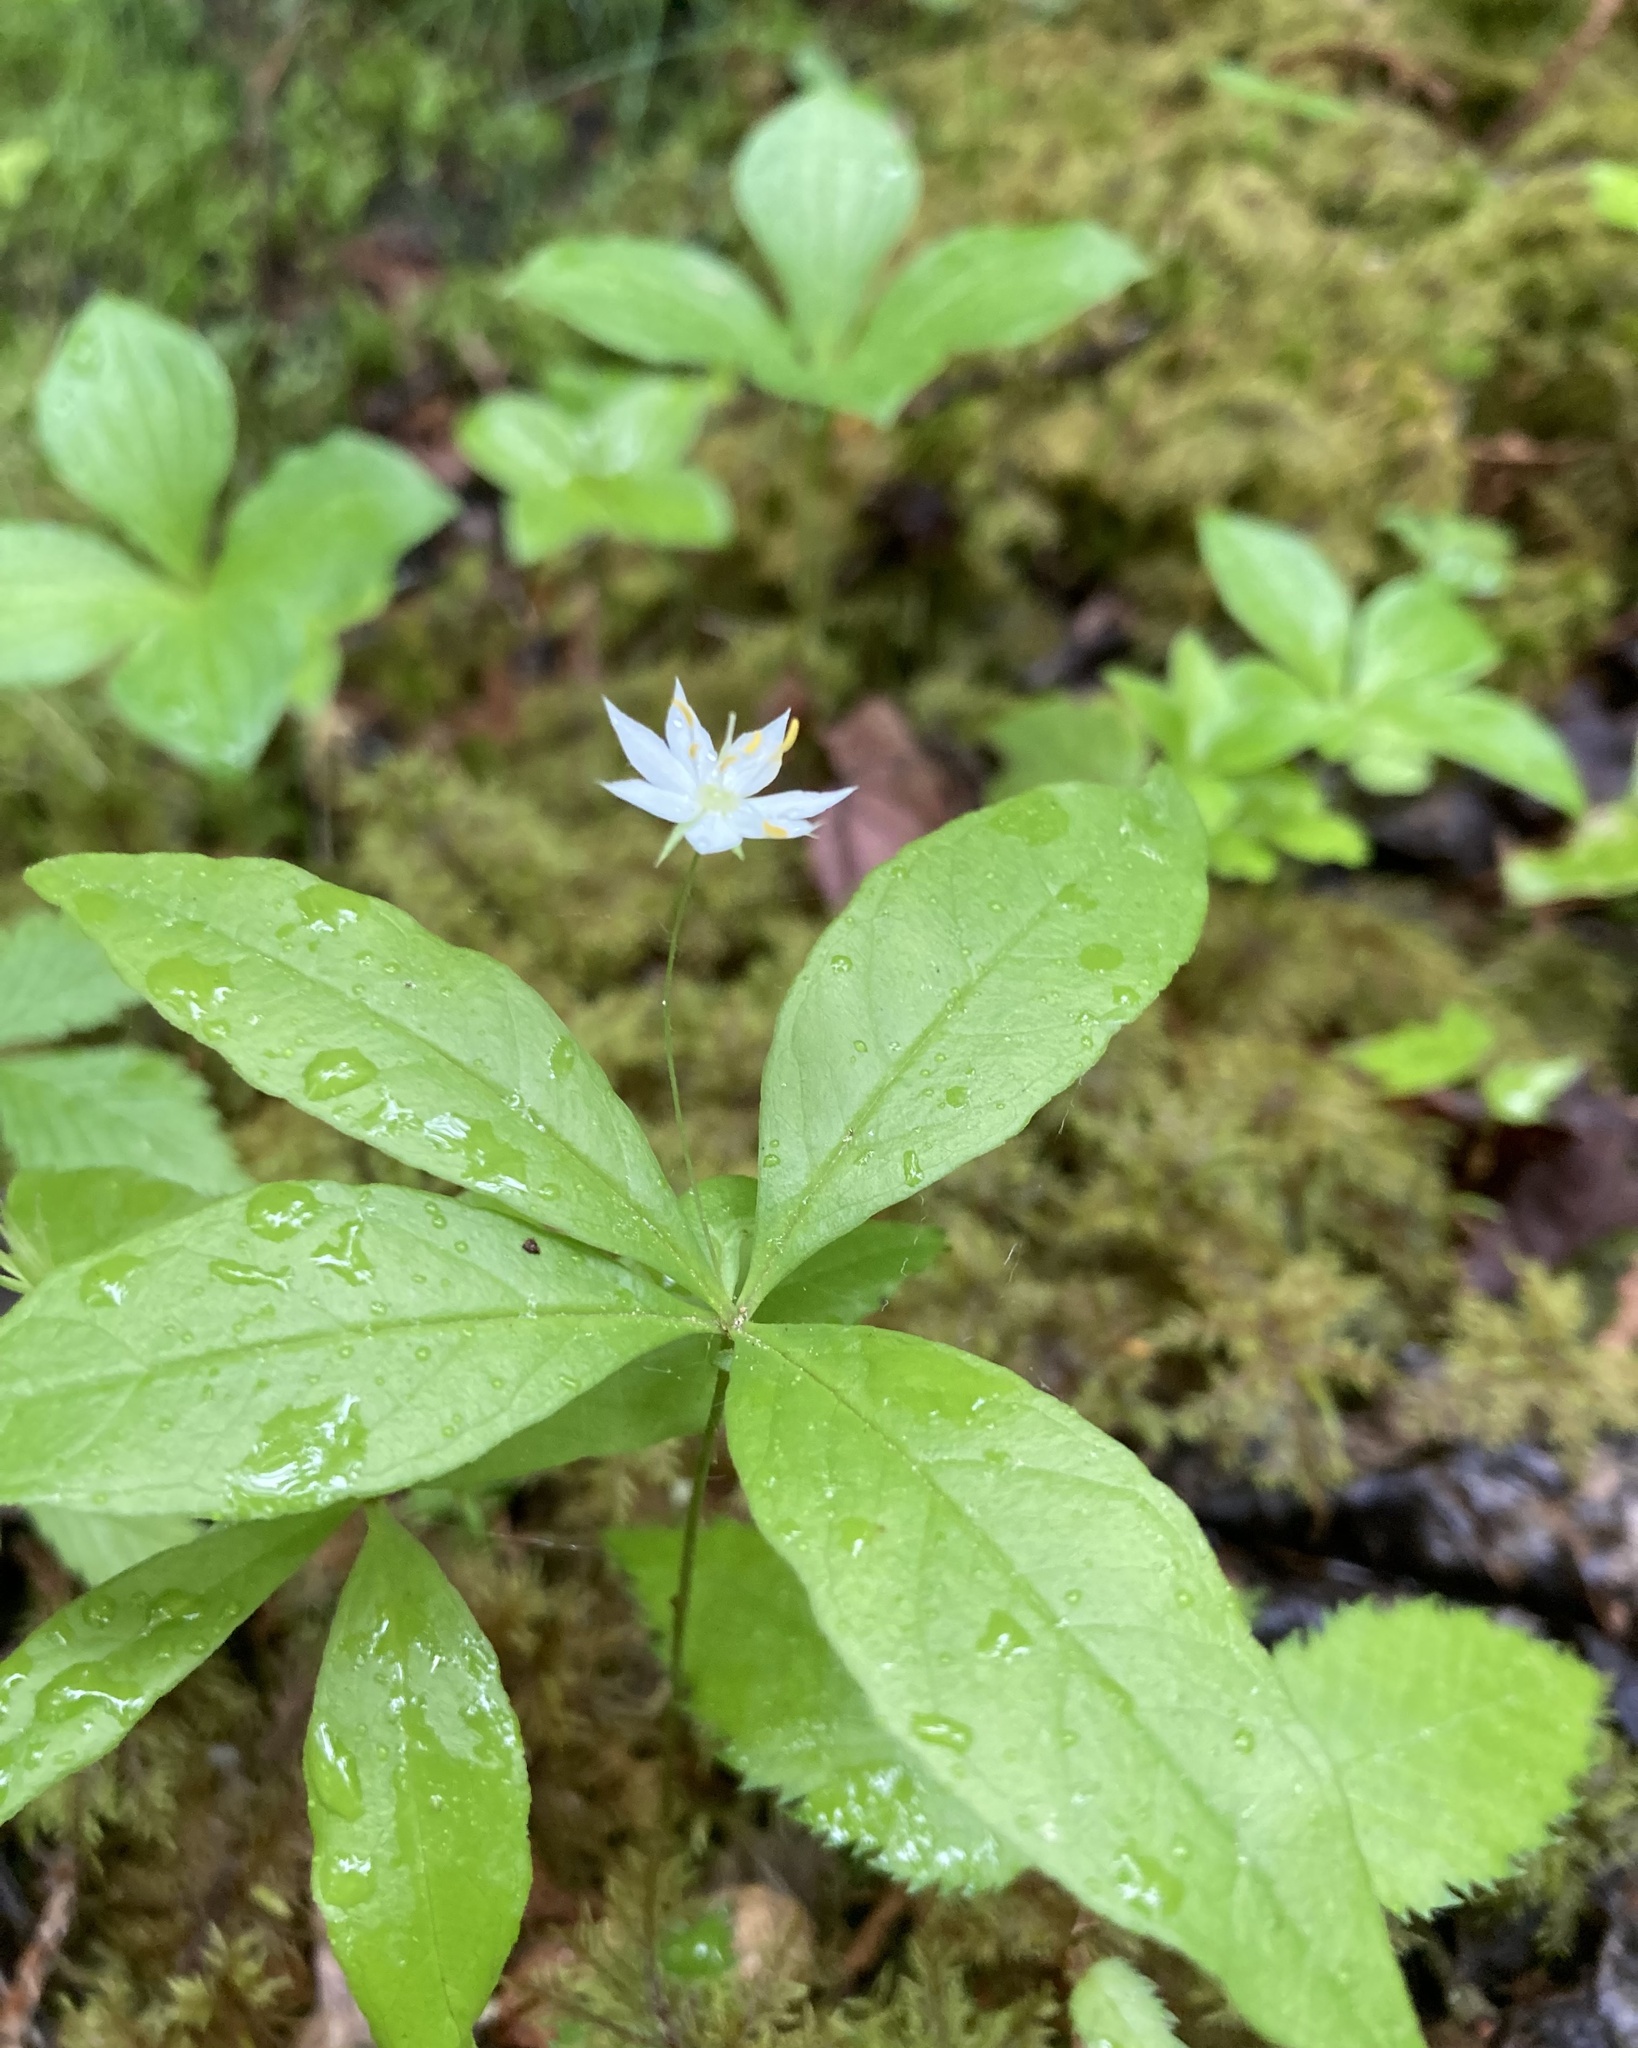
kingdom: Plantae
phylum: Tracheophyta
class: Magnoliopsida
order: Ericales
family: Primulaceae
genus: Lysimachia
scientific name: Lysimachia borealis
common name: American starflower
